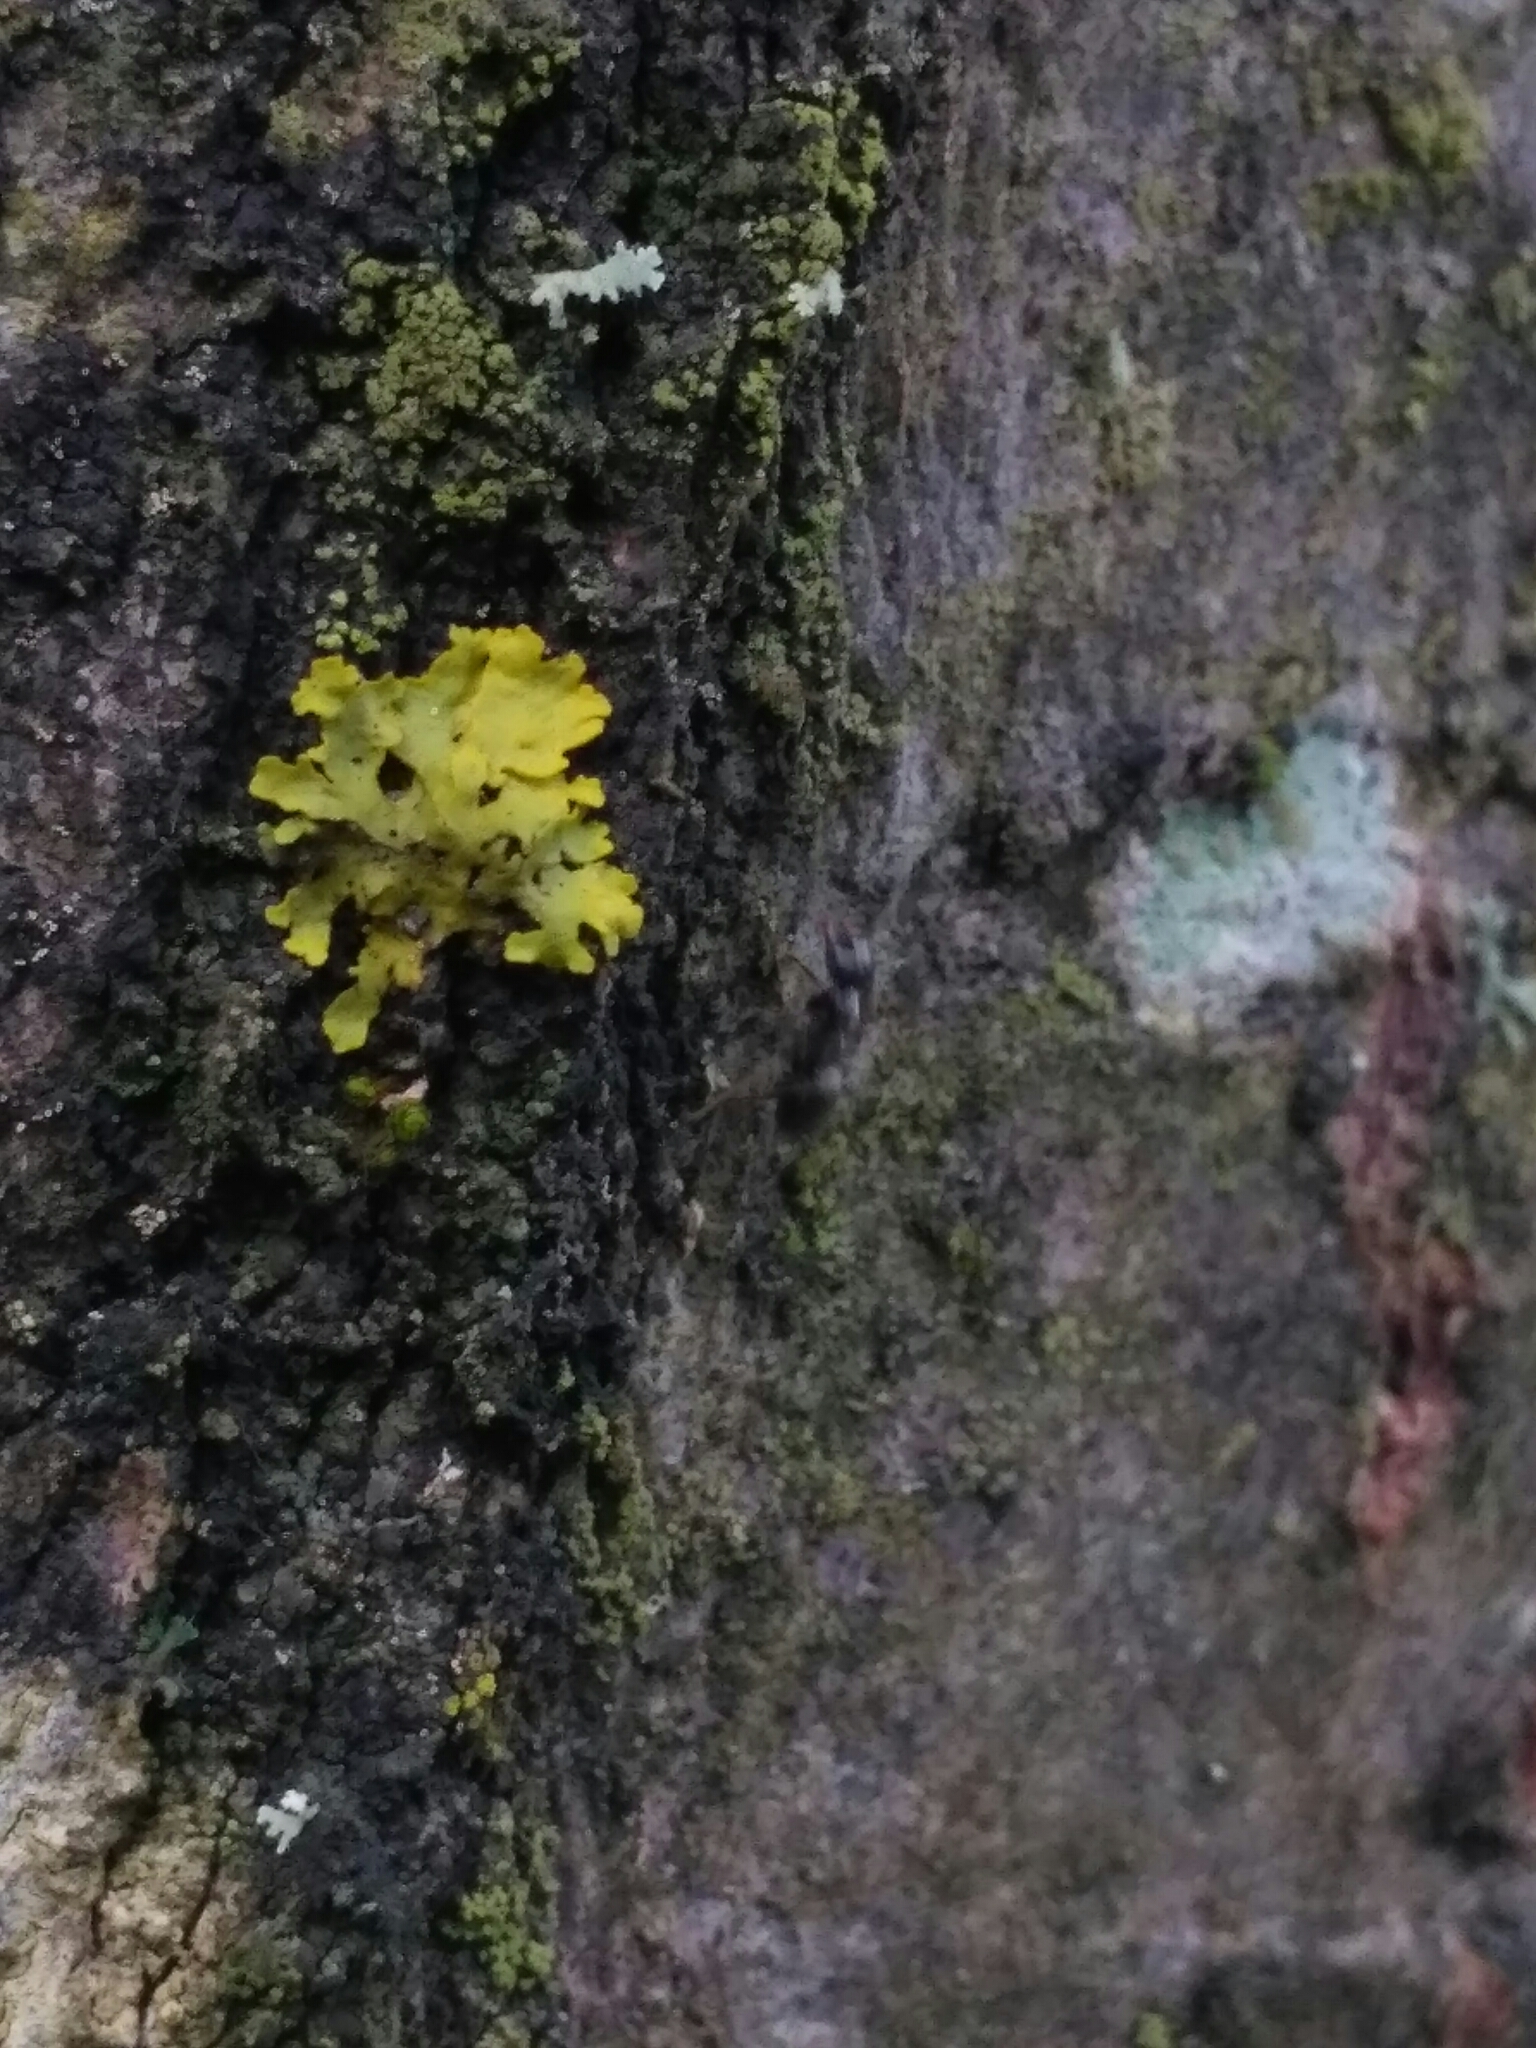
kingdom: Fungi
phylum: Ascomycota
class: Lecanoromycetes
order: Teloschistales
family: Teloschistaceae
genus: Xanthoria
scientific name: Xanthoria parietina
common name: Common orange lichen
